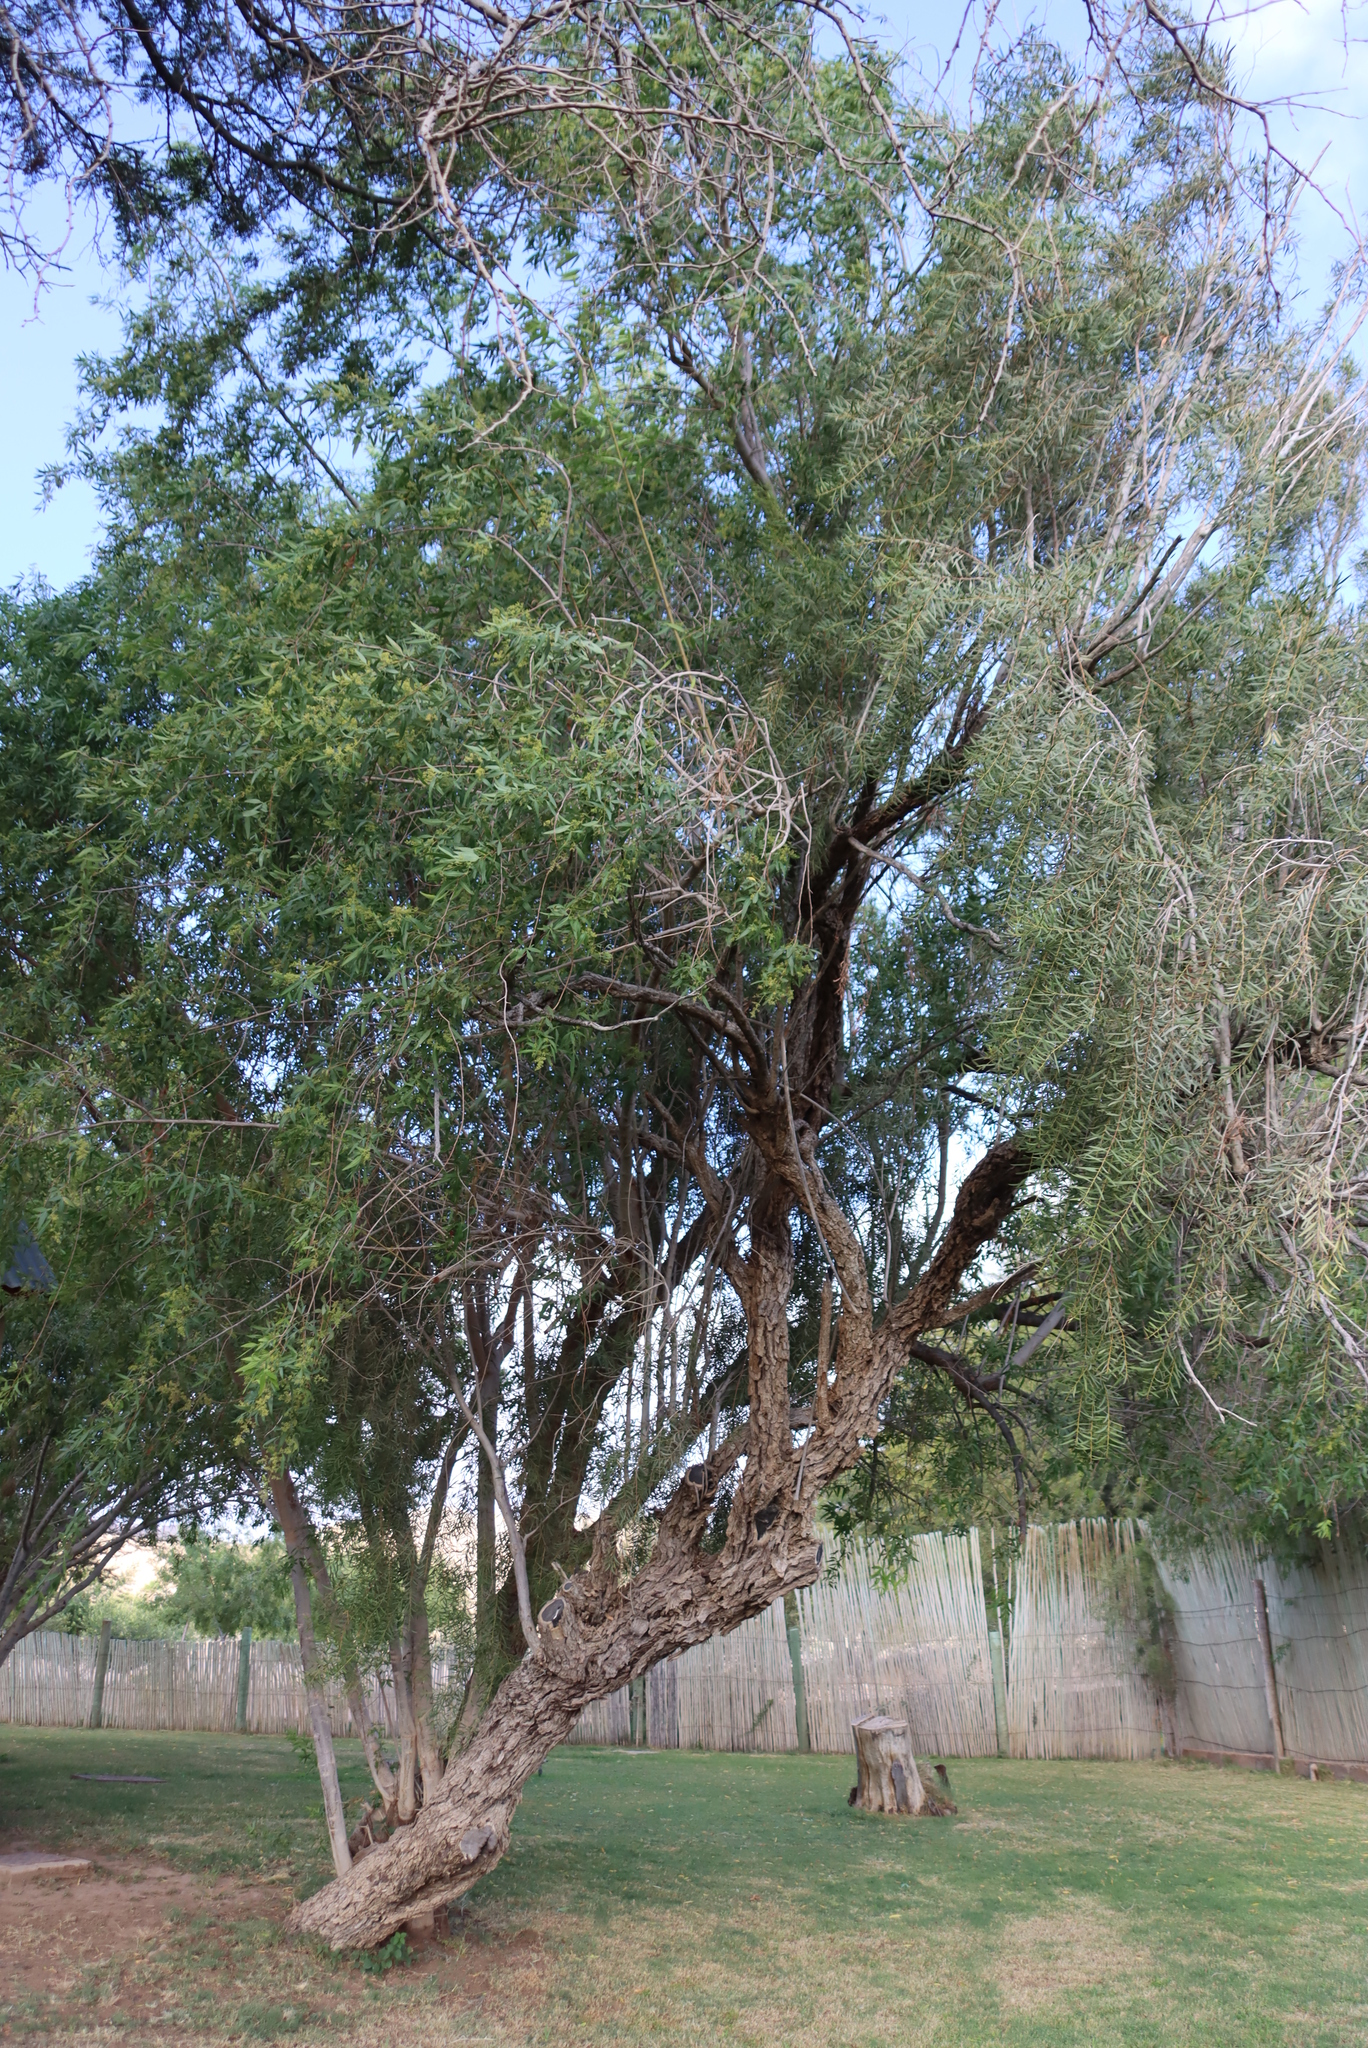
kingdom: Plantae
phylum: Tracheophyta
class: Magnoliopsida
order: Ericales
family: Ebenaceae
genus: Euclea
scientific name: Euclea pseudebenus
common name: Black ebony
